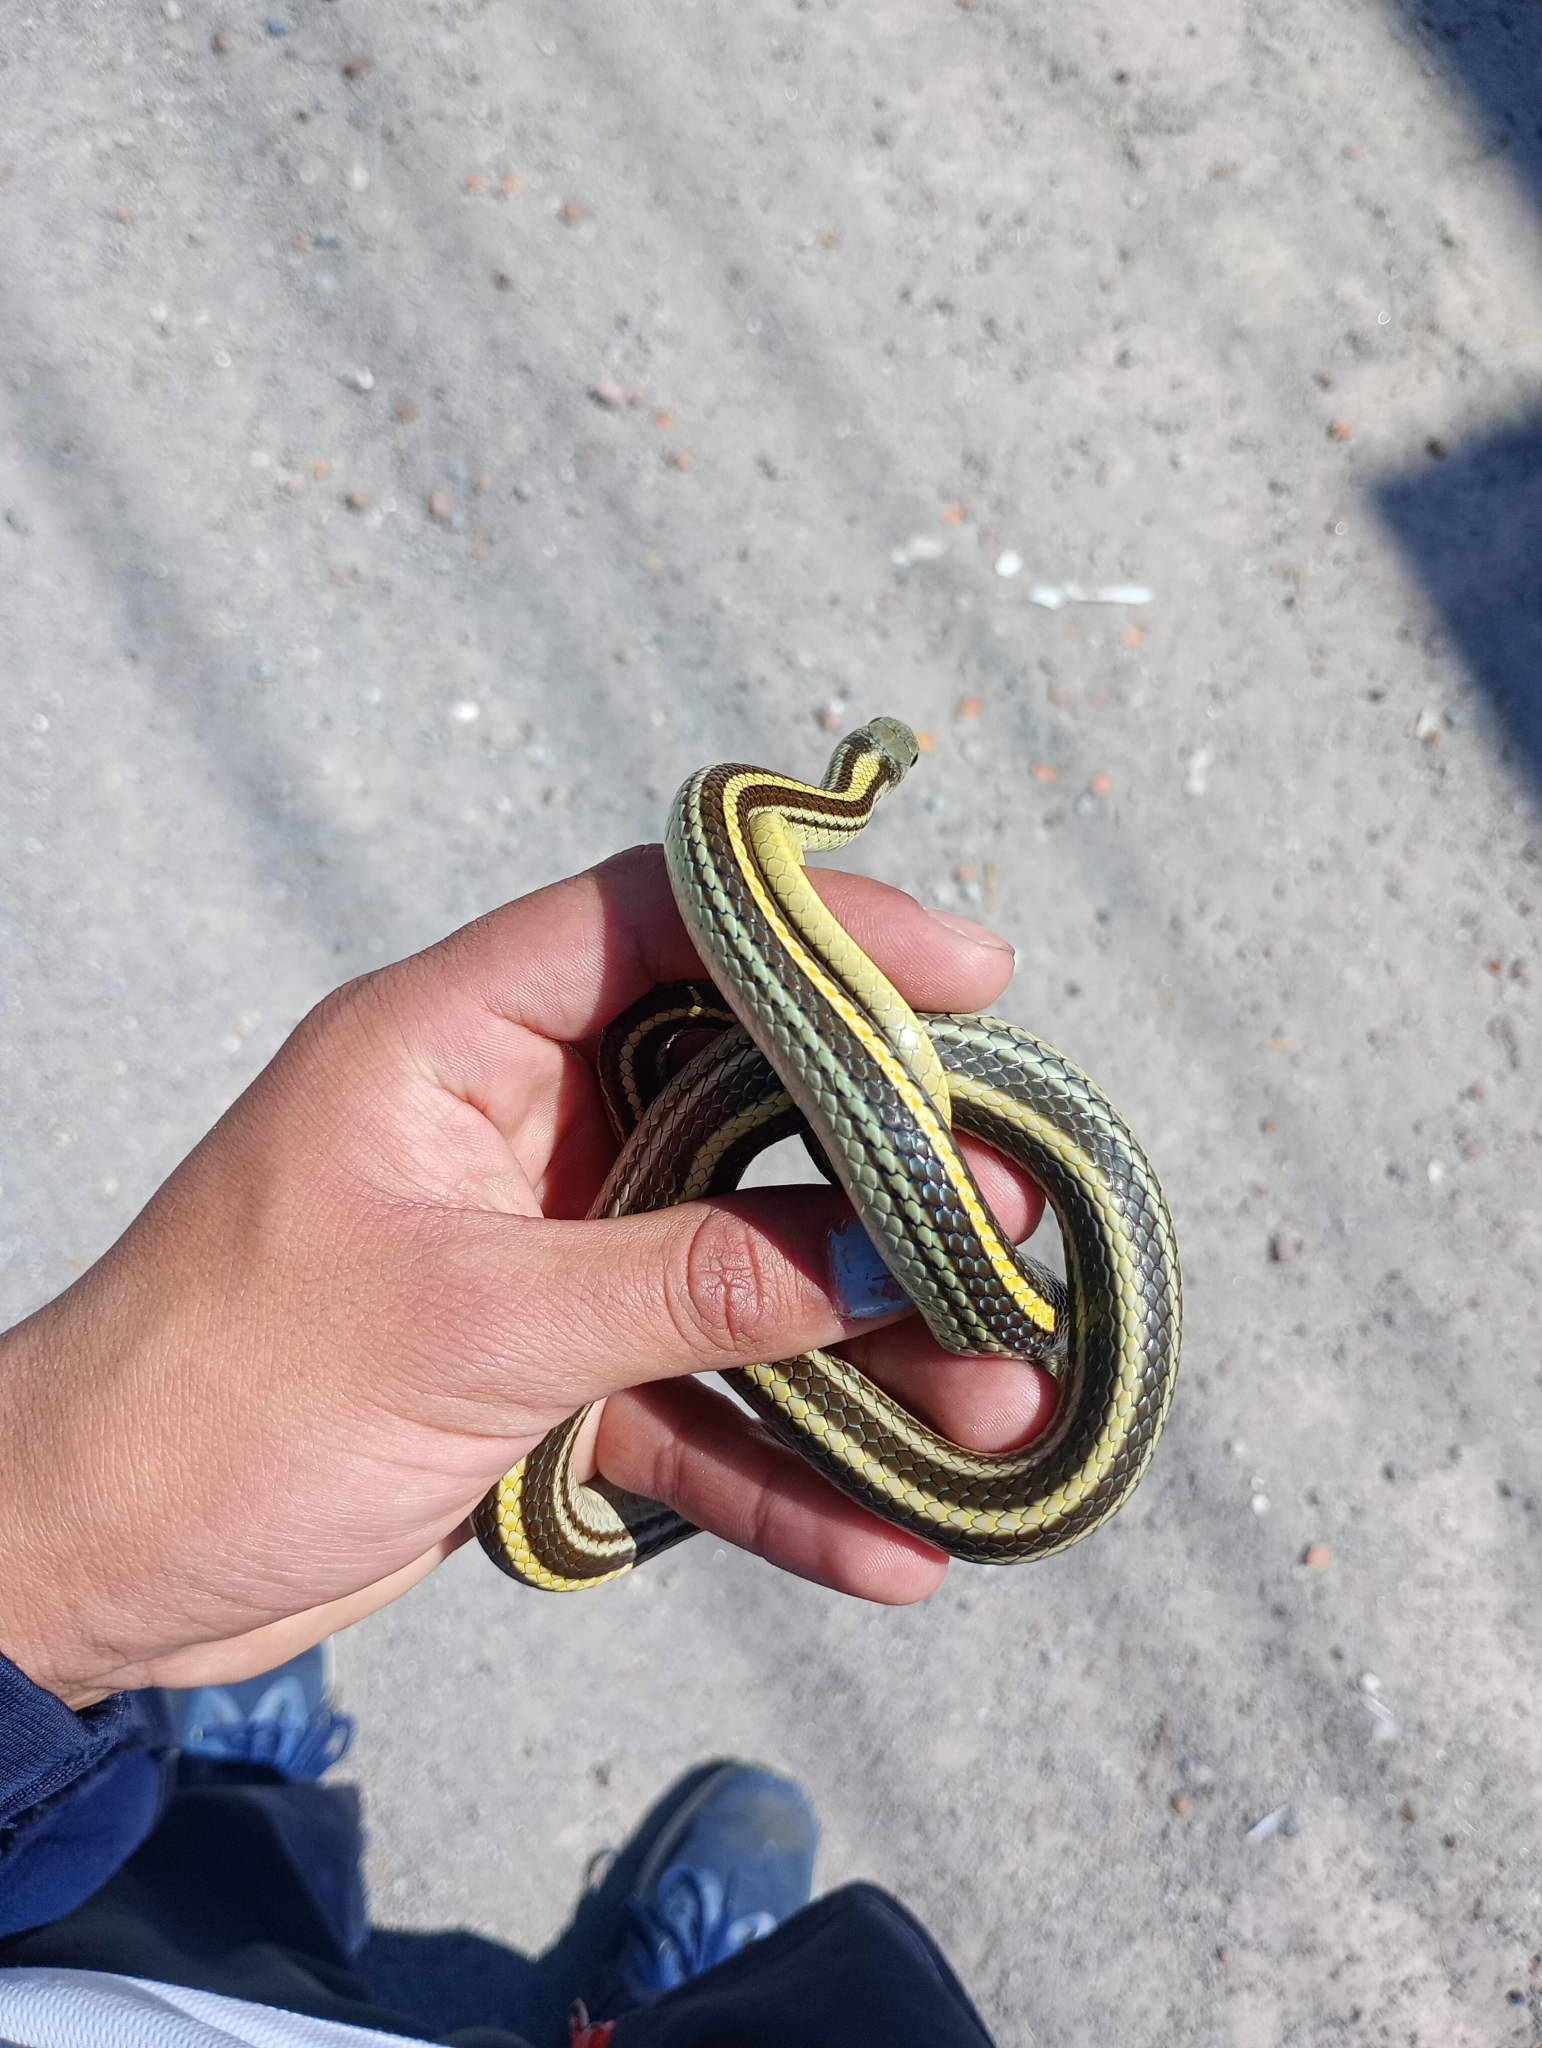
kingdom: Animalia
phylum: Chordata
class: Squamata
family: Colubridae
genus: Salvadora
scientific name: Salvadora bairdi
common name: Baird's patchnose snake
